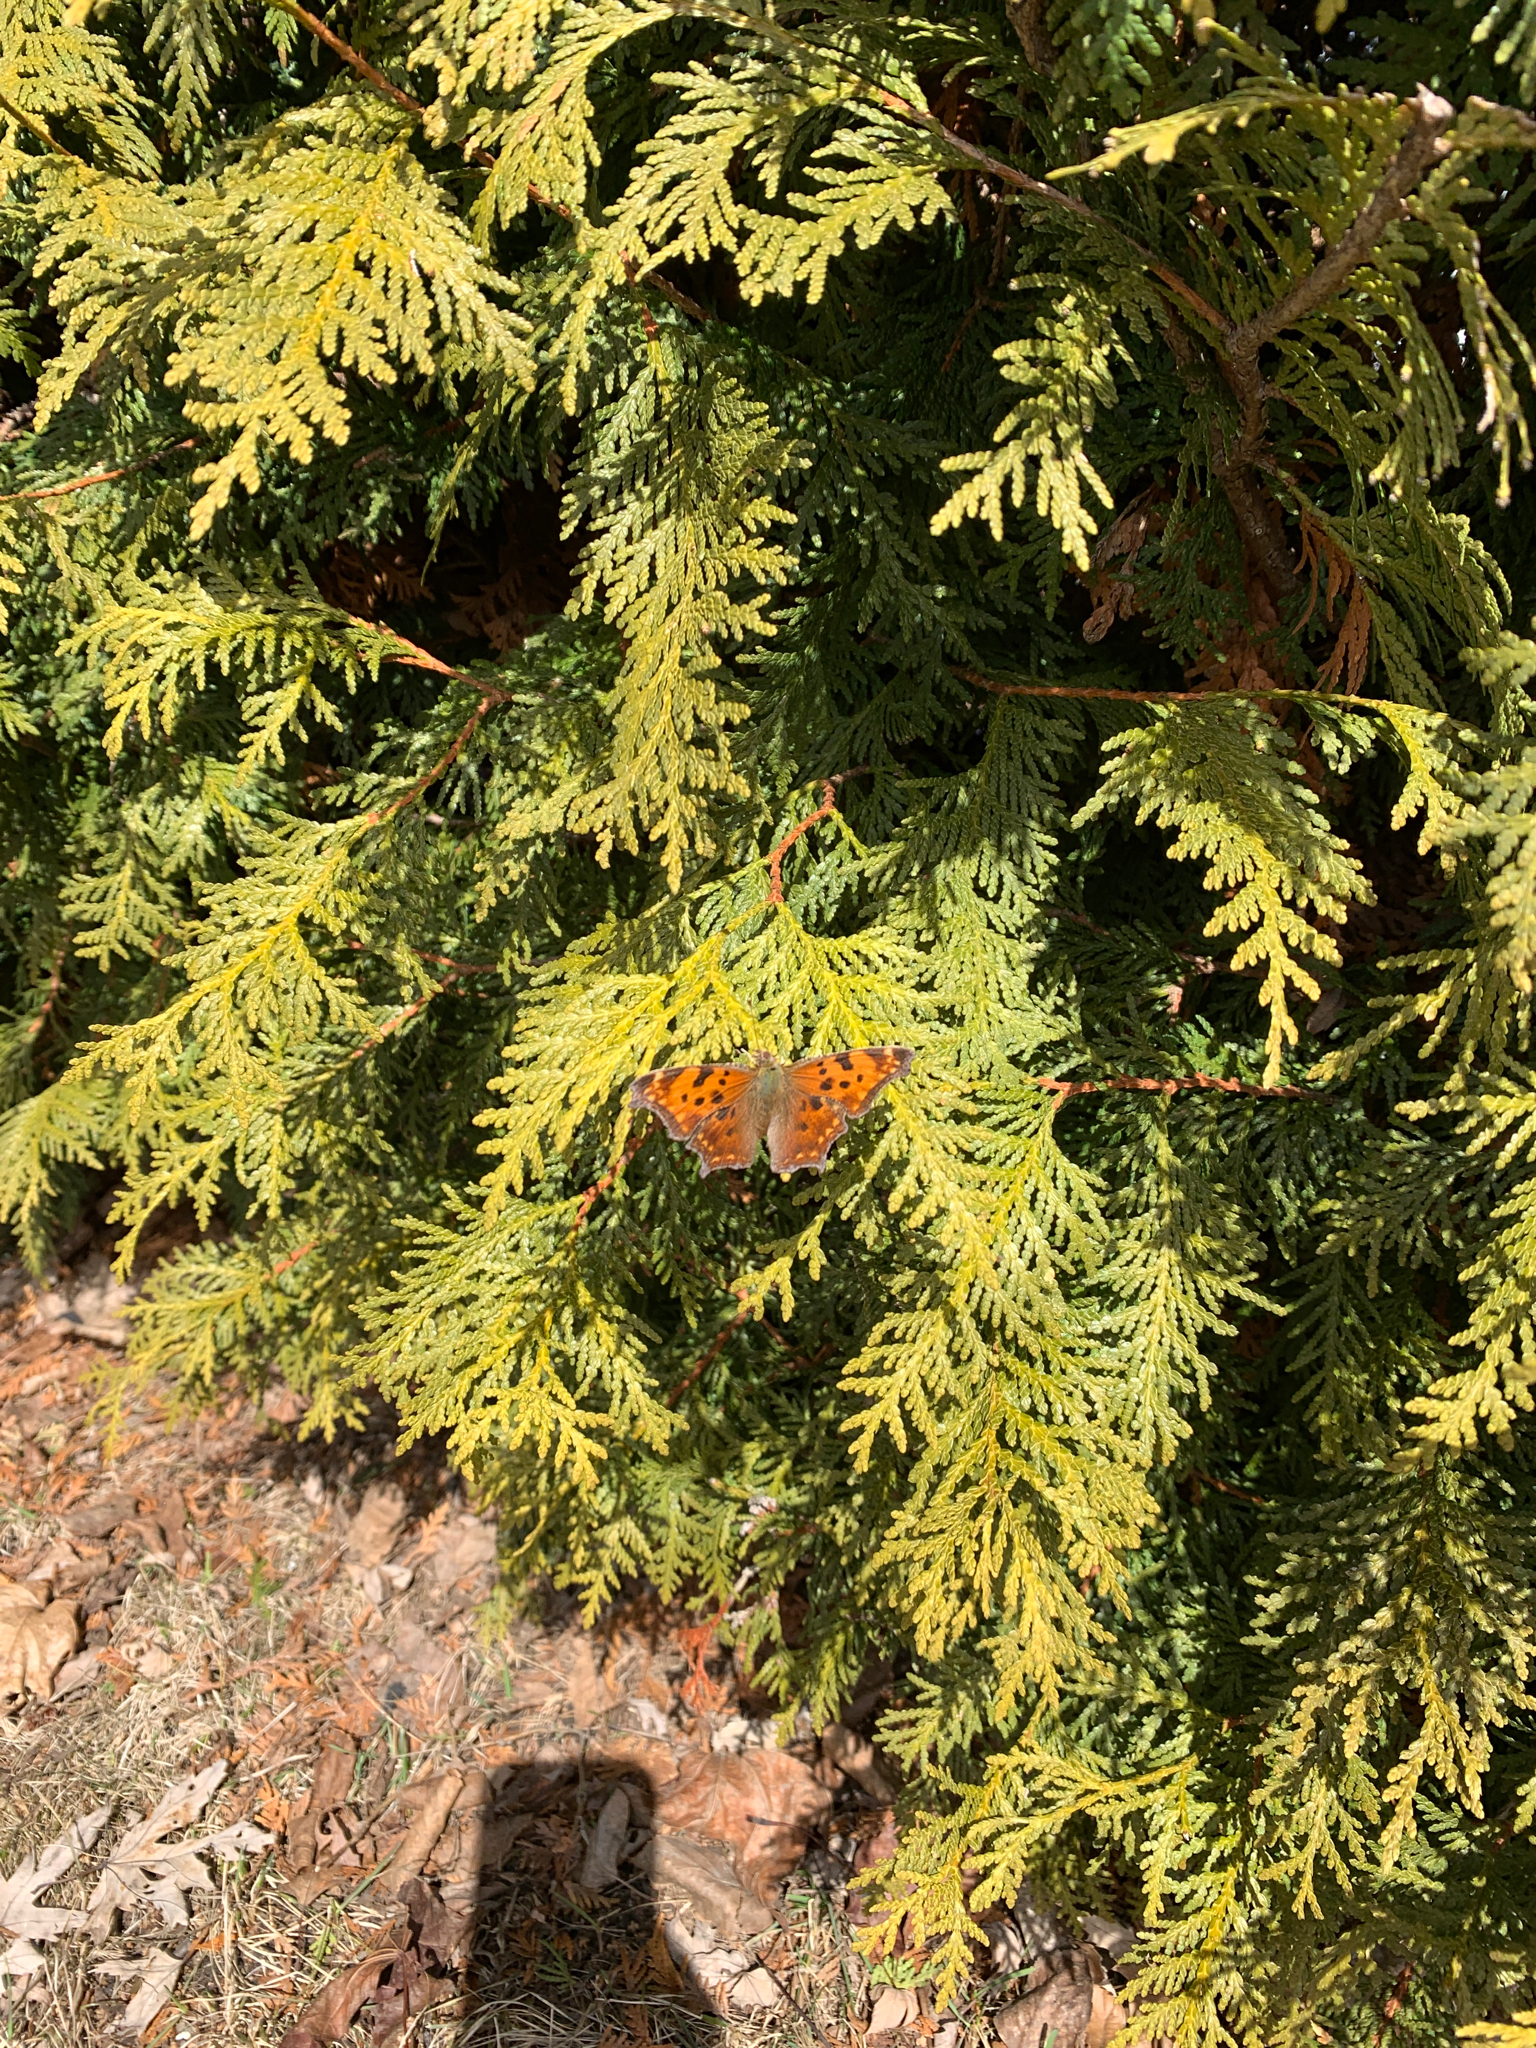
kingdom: Animalia
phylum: Arthropoda
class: Insecta
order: Lepidoptera
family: Nymphalidae
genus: Polygonia
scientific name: Polygonia comma
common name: Eastern comma
